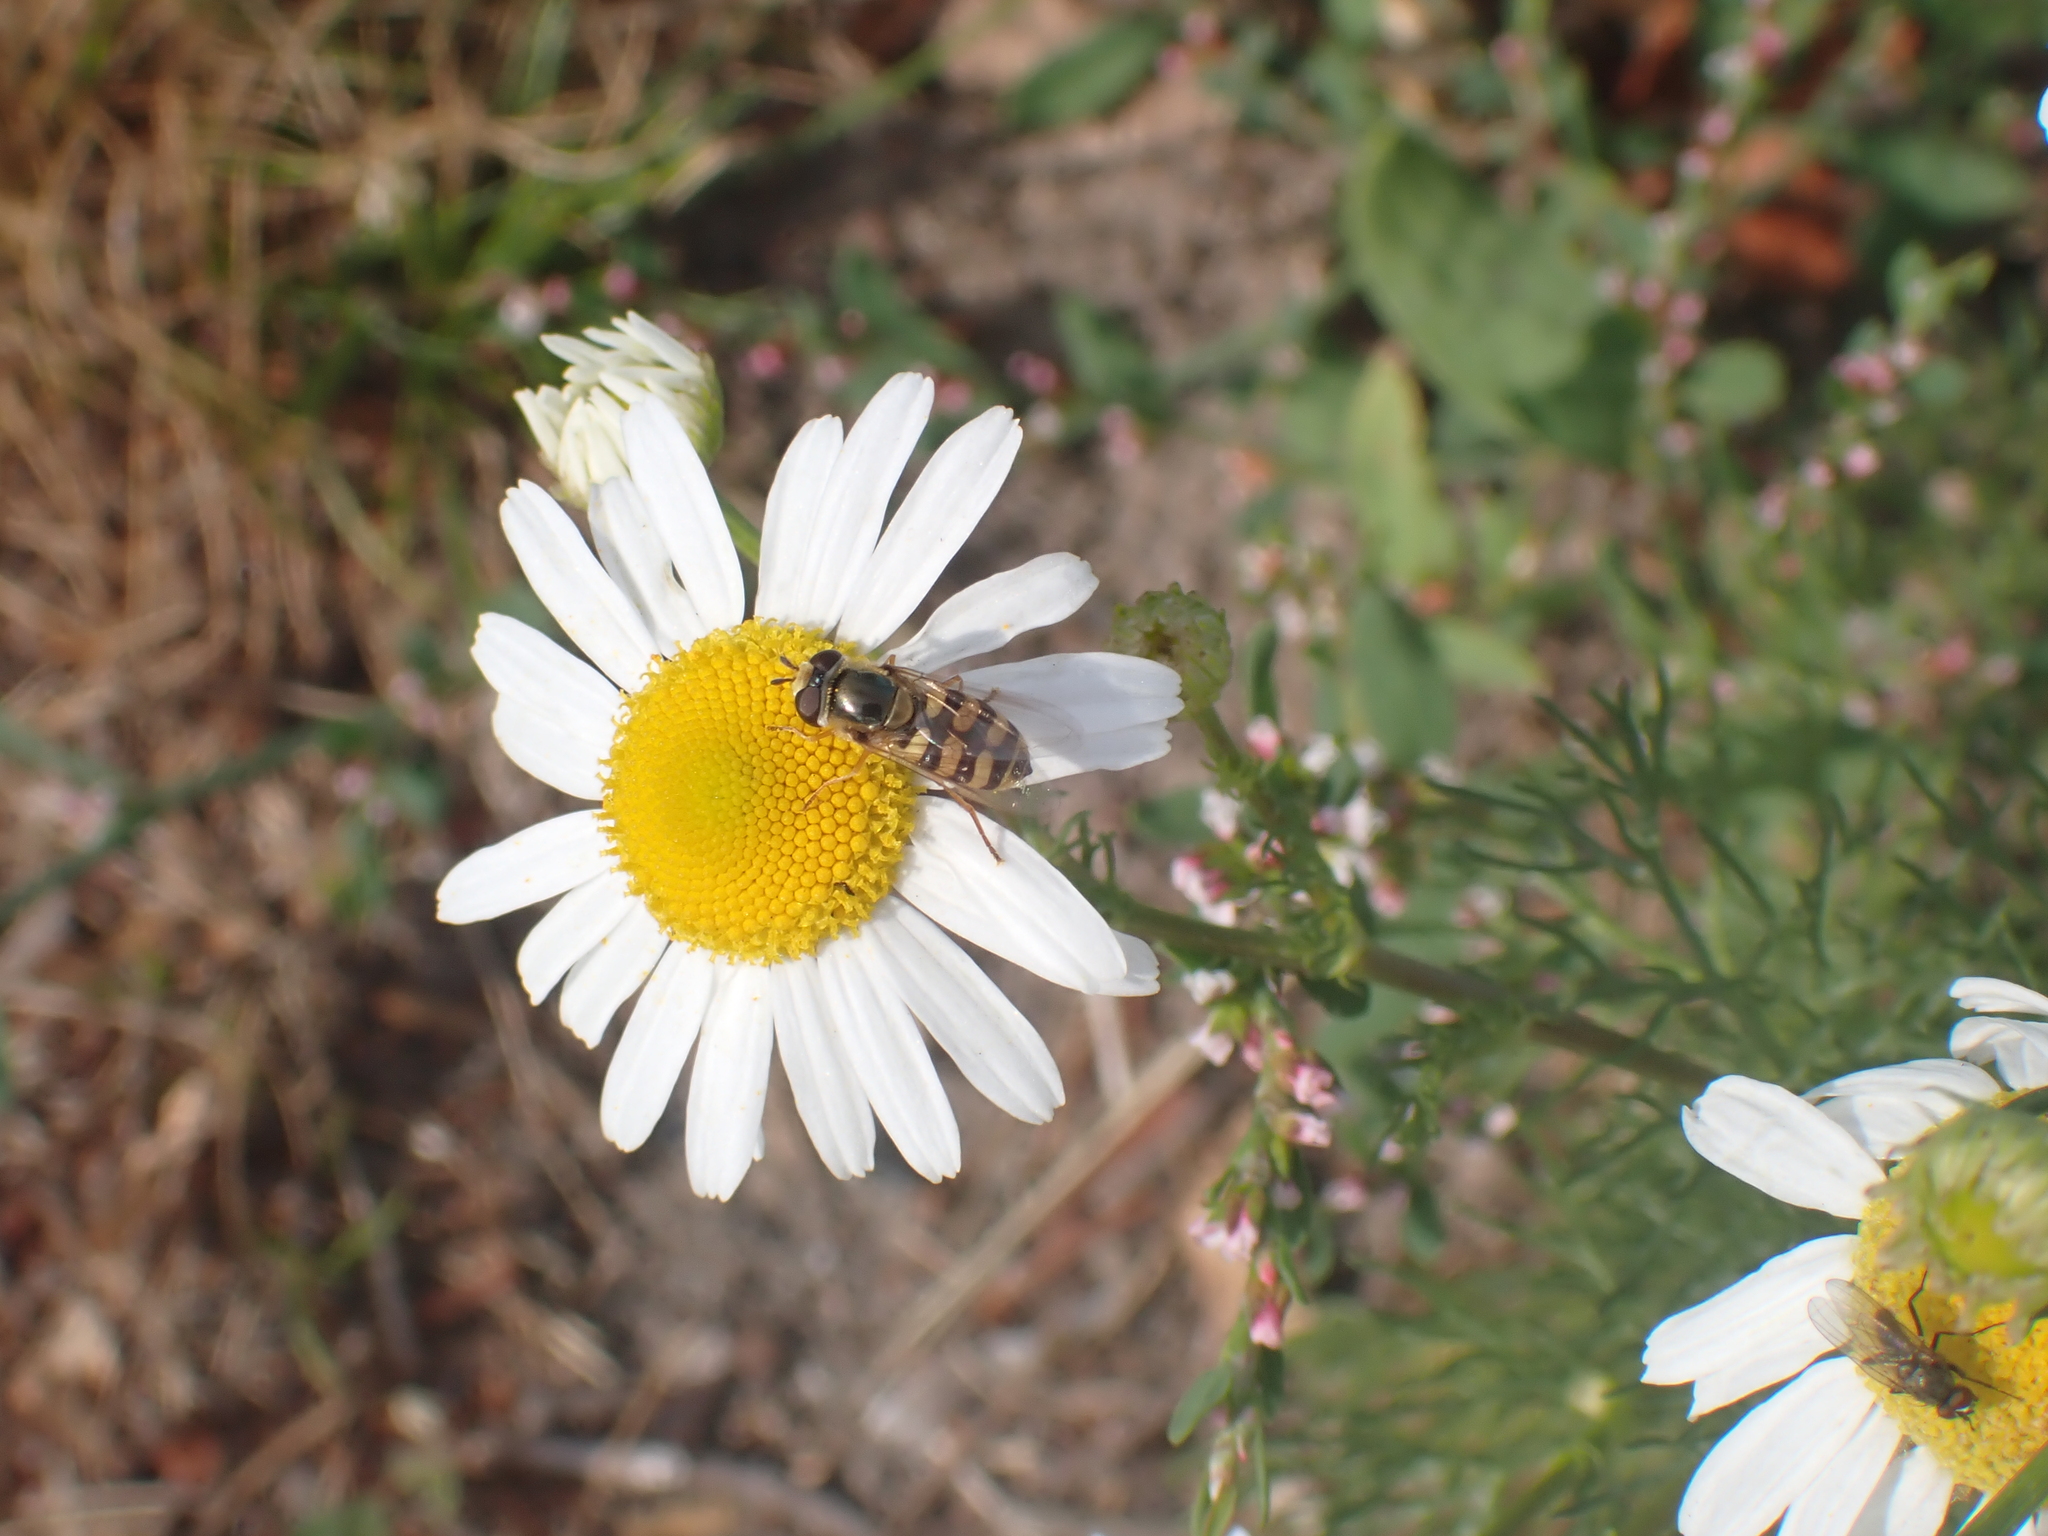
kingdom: Animalia
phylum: Arthropoda
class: Insecta
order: Diptera
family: Syrphidae
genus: Eupeodes
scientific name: Eupeodes corollae
